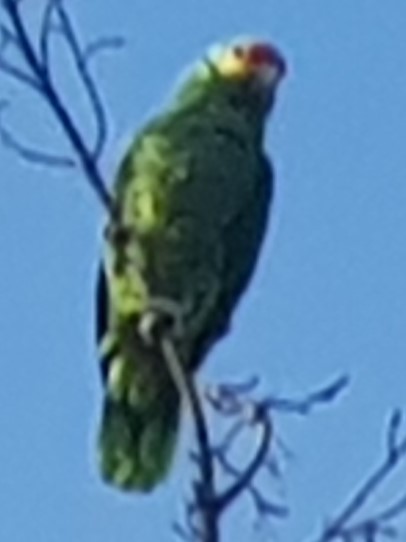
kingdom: Animalia
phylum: Chordata
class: Aves
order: Psittaciformes
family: Psittacidae
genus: Amazona
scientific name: Amazona autumnalis
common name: Red-lored amazon
